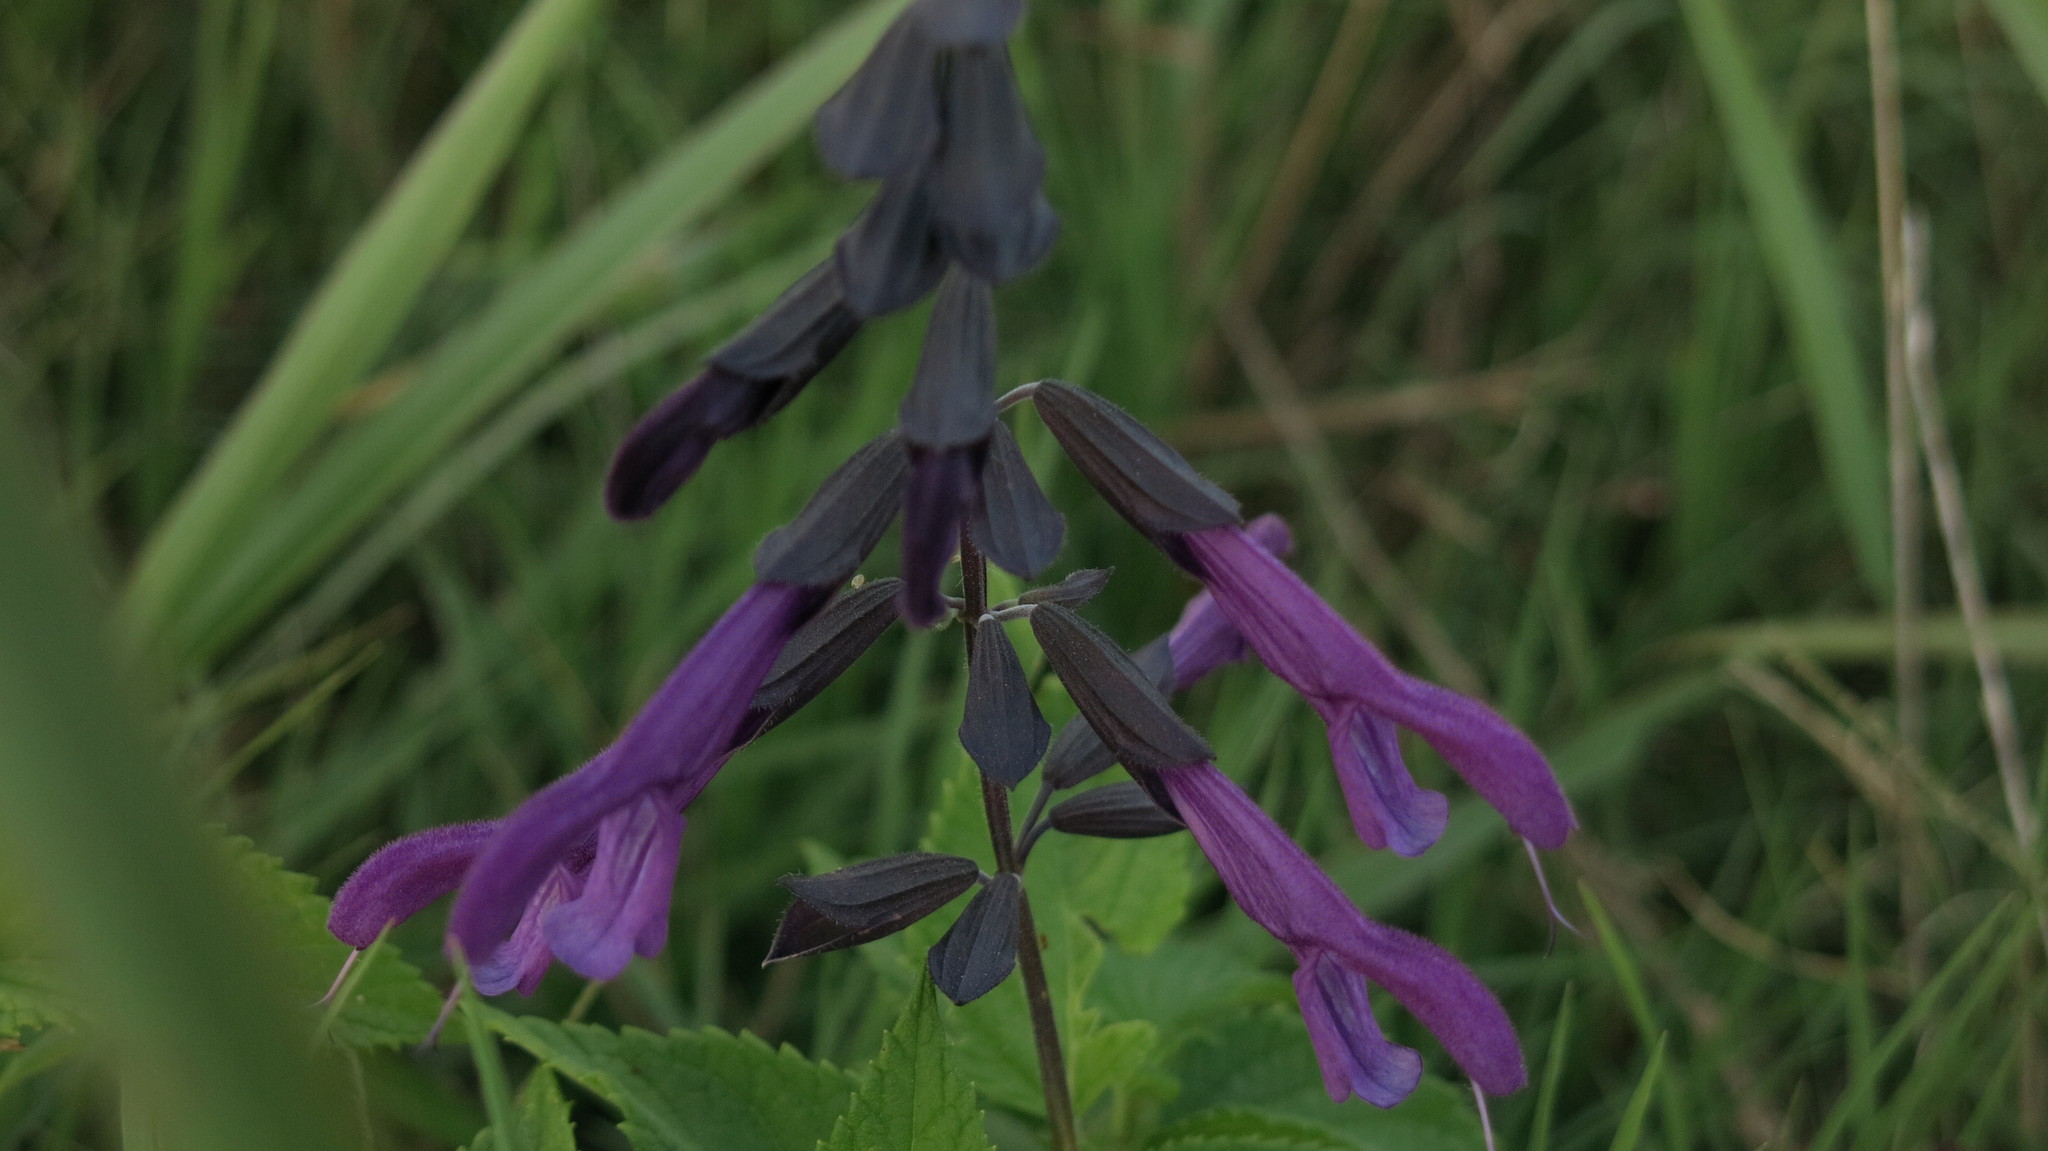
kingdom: Plantae
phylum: Tracheophyta
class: Magnoliopsida
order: Lamiales
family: Lamiaceae
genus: Salvia
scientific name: Salvia guaranitica
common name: Anise-scented sage
